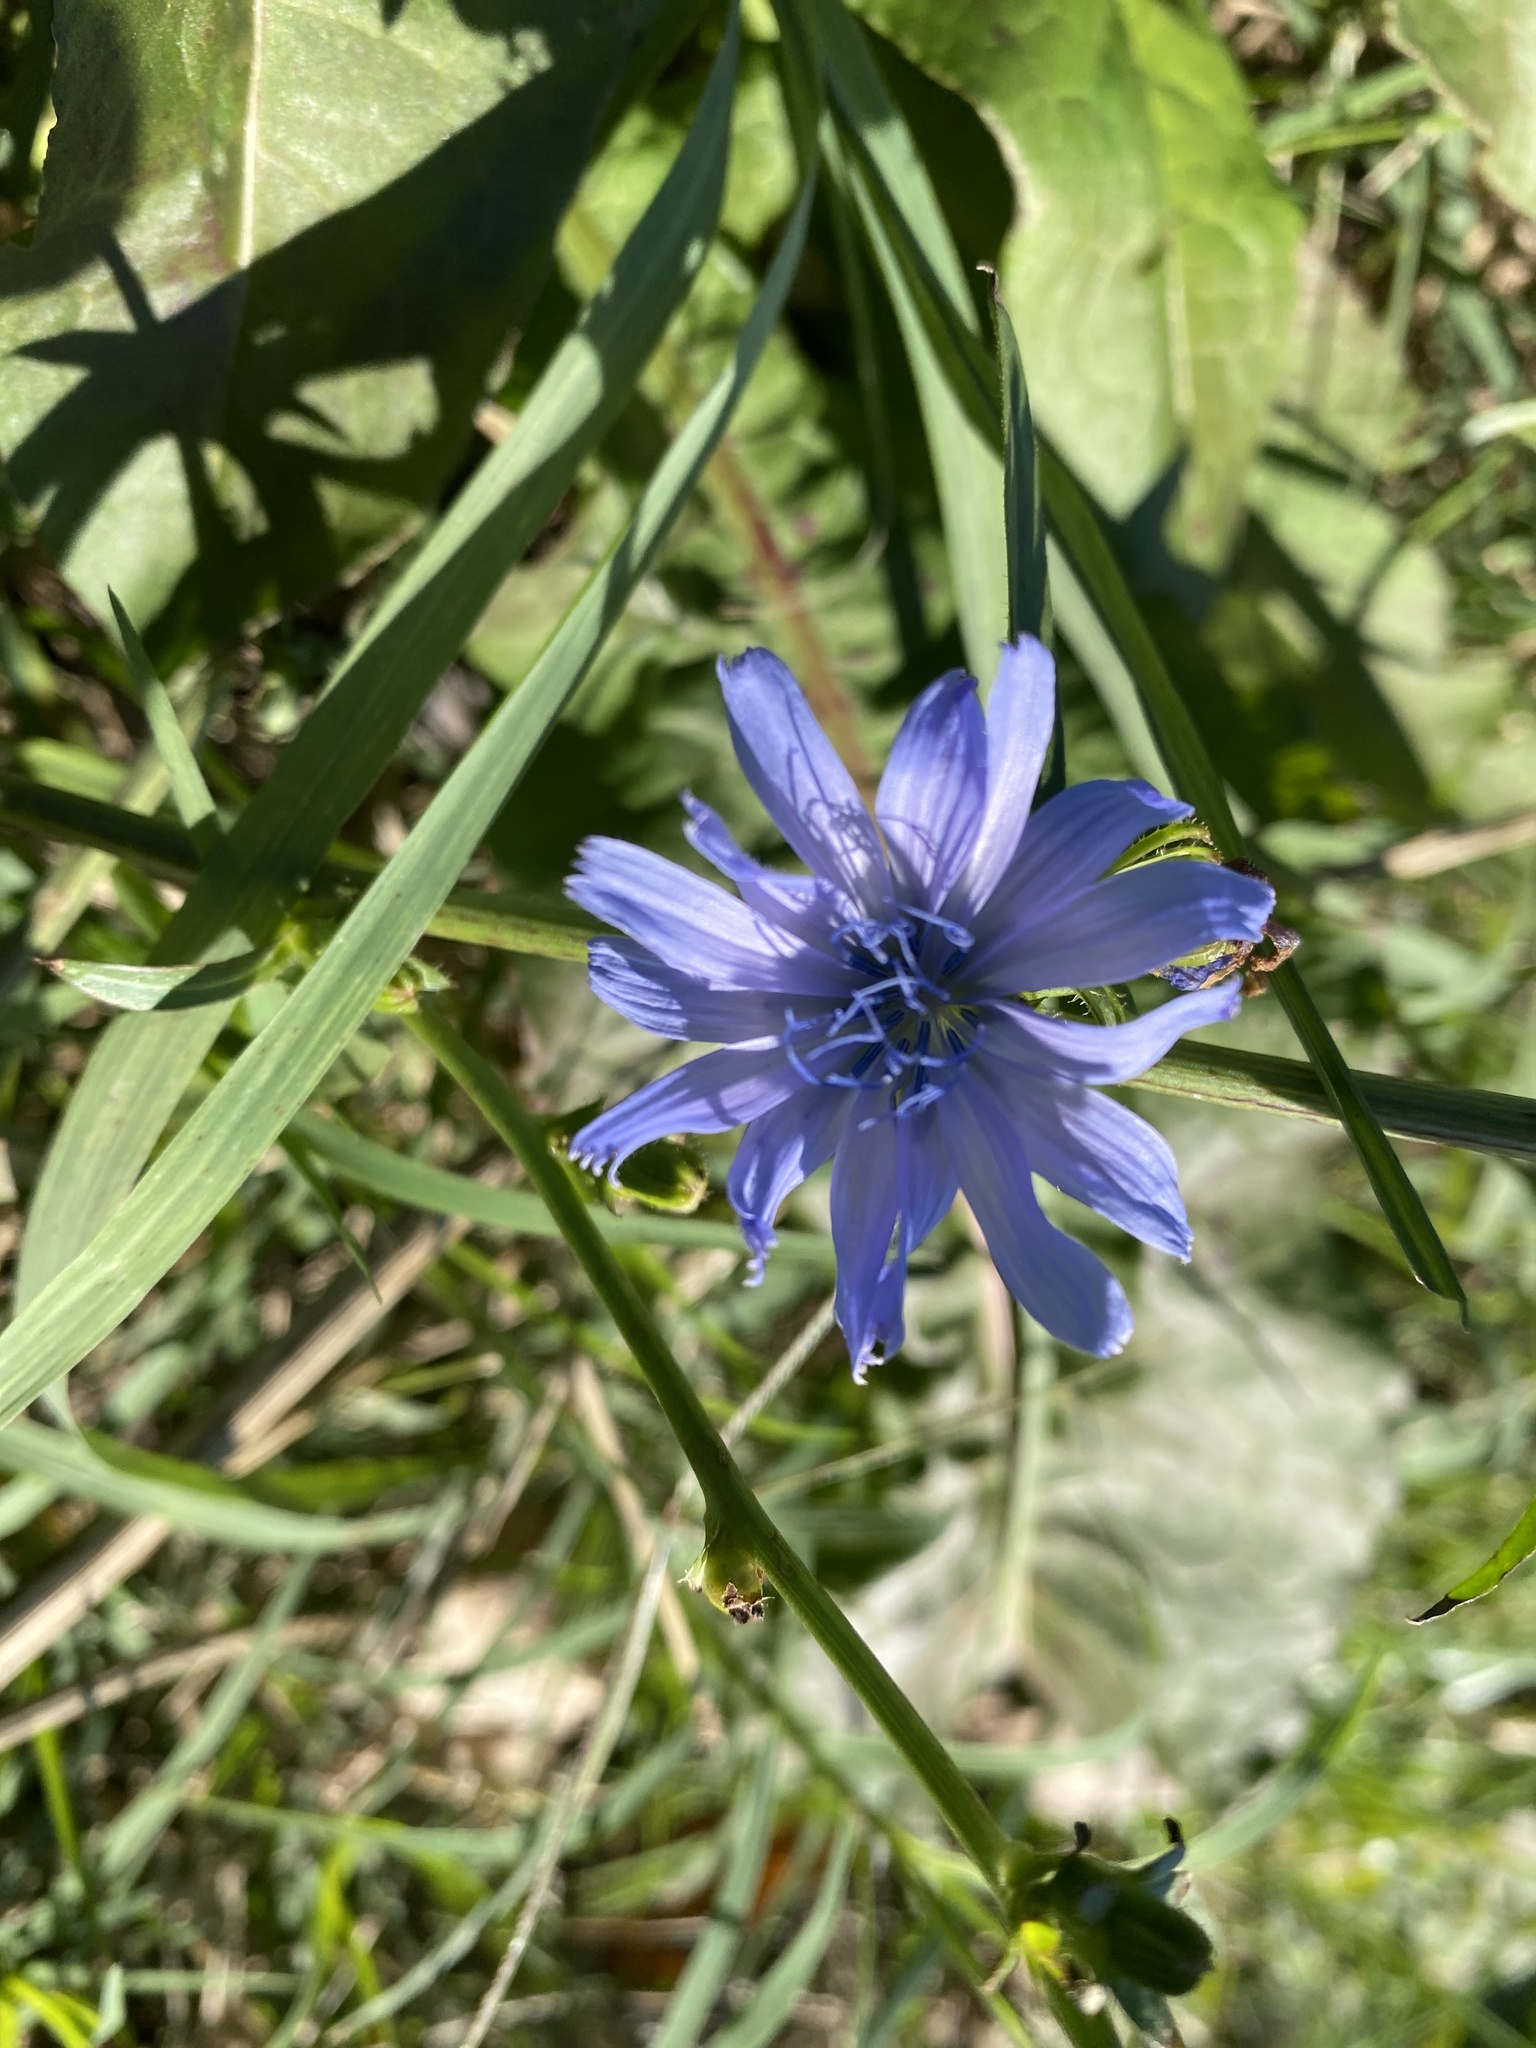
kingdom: Plantae
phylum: Tracheophyta
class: Magnoliopsida
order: Asterales
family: Asteraceae
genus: Cichorium
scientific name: Cichorium intybus
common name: Chicory
